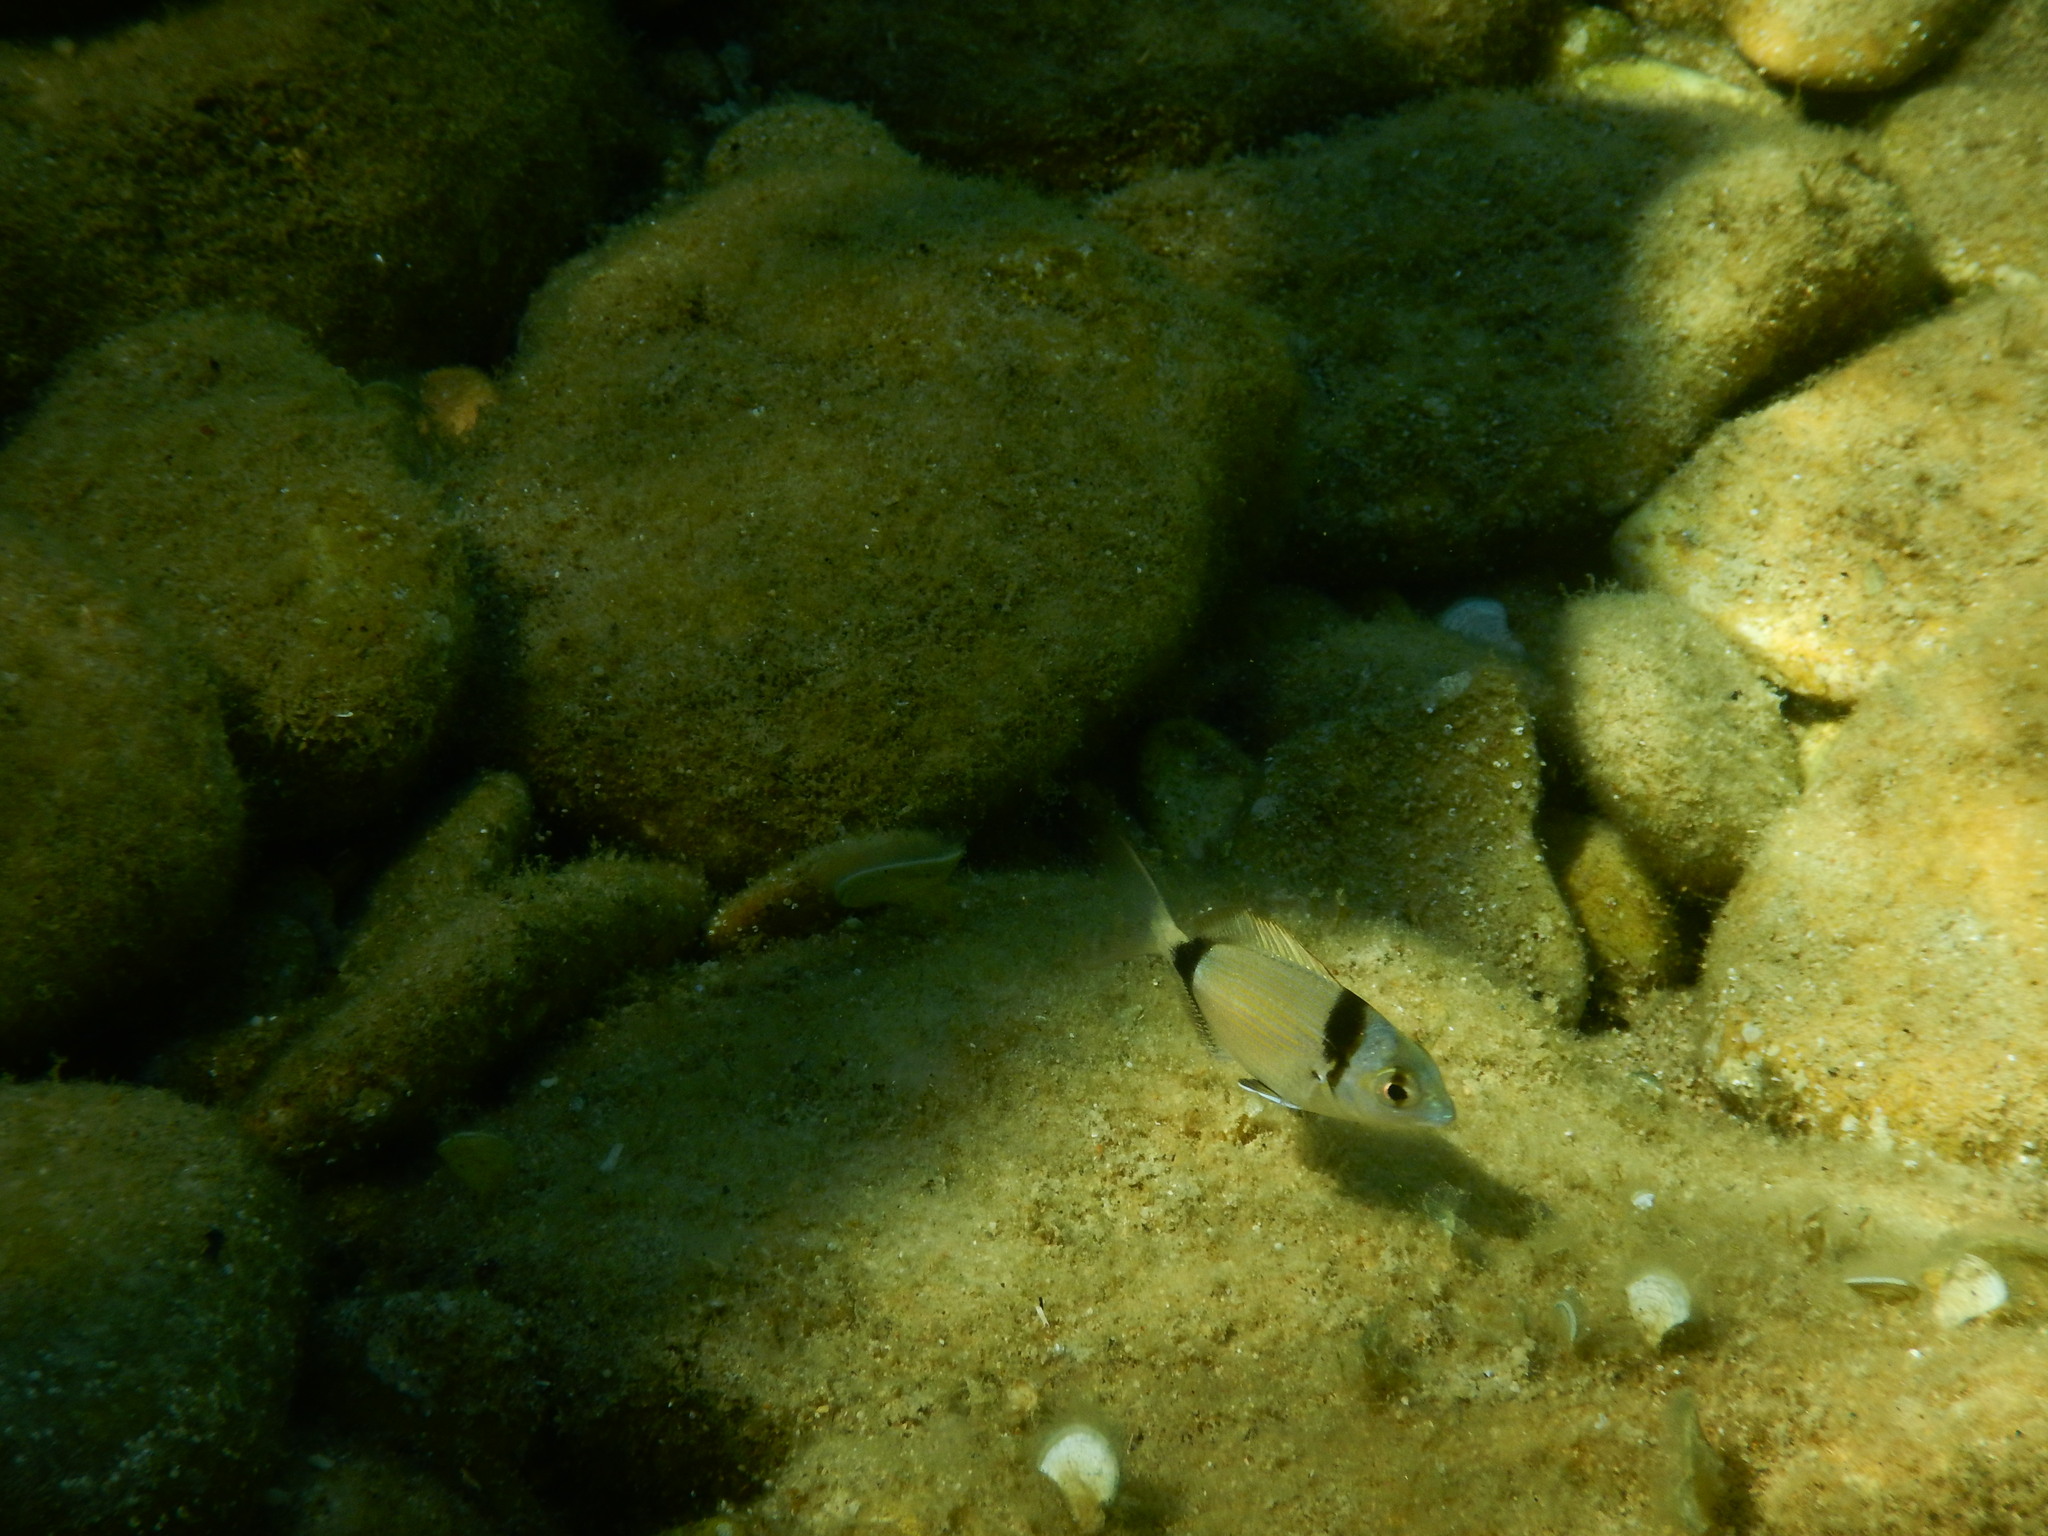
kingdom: Animalia
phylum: Chordata
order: Perciformes
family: Sparidae
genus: Diplodus
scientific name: Diplodus vulgaris
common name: Common two-banded seabream
